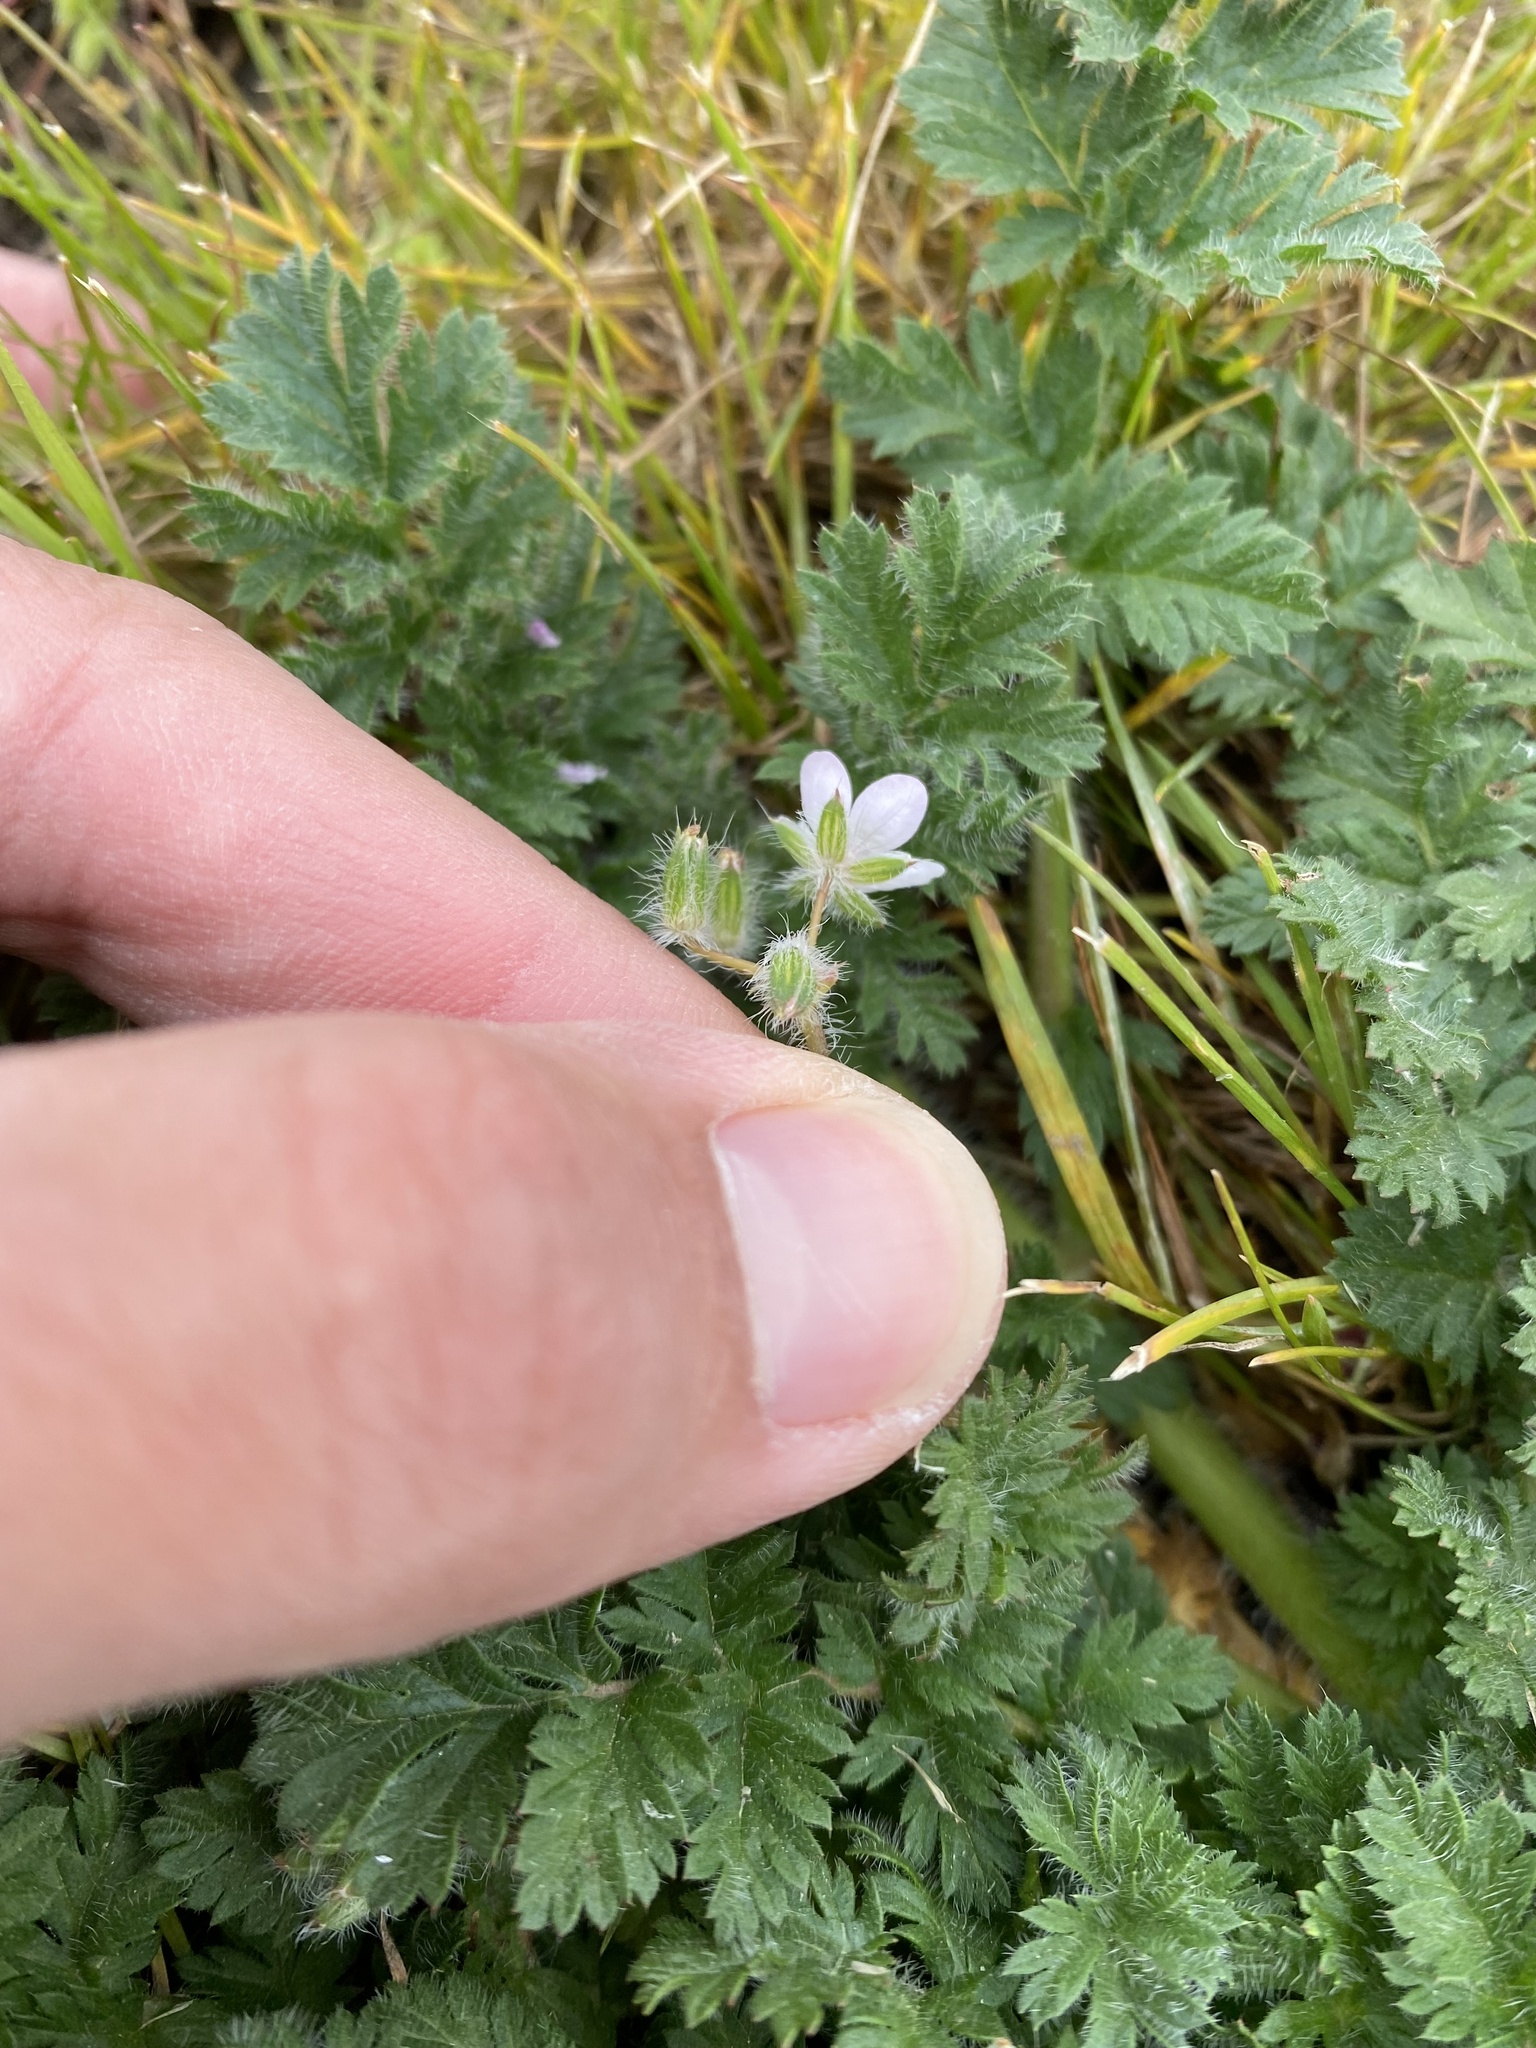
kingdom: Plantae
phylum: Tracheophyta
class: Magnoliopsida
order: Geraniales
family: Geraniaceae
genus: Erodium
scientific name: Erodium cicutarium
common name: Common stork's-bill
